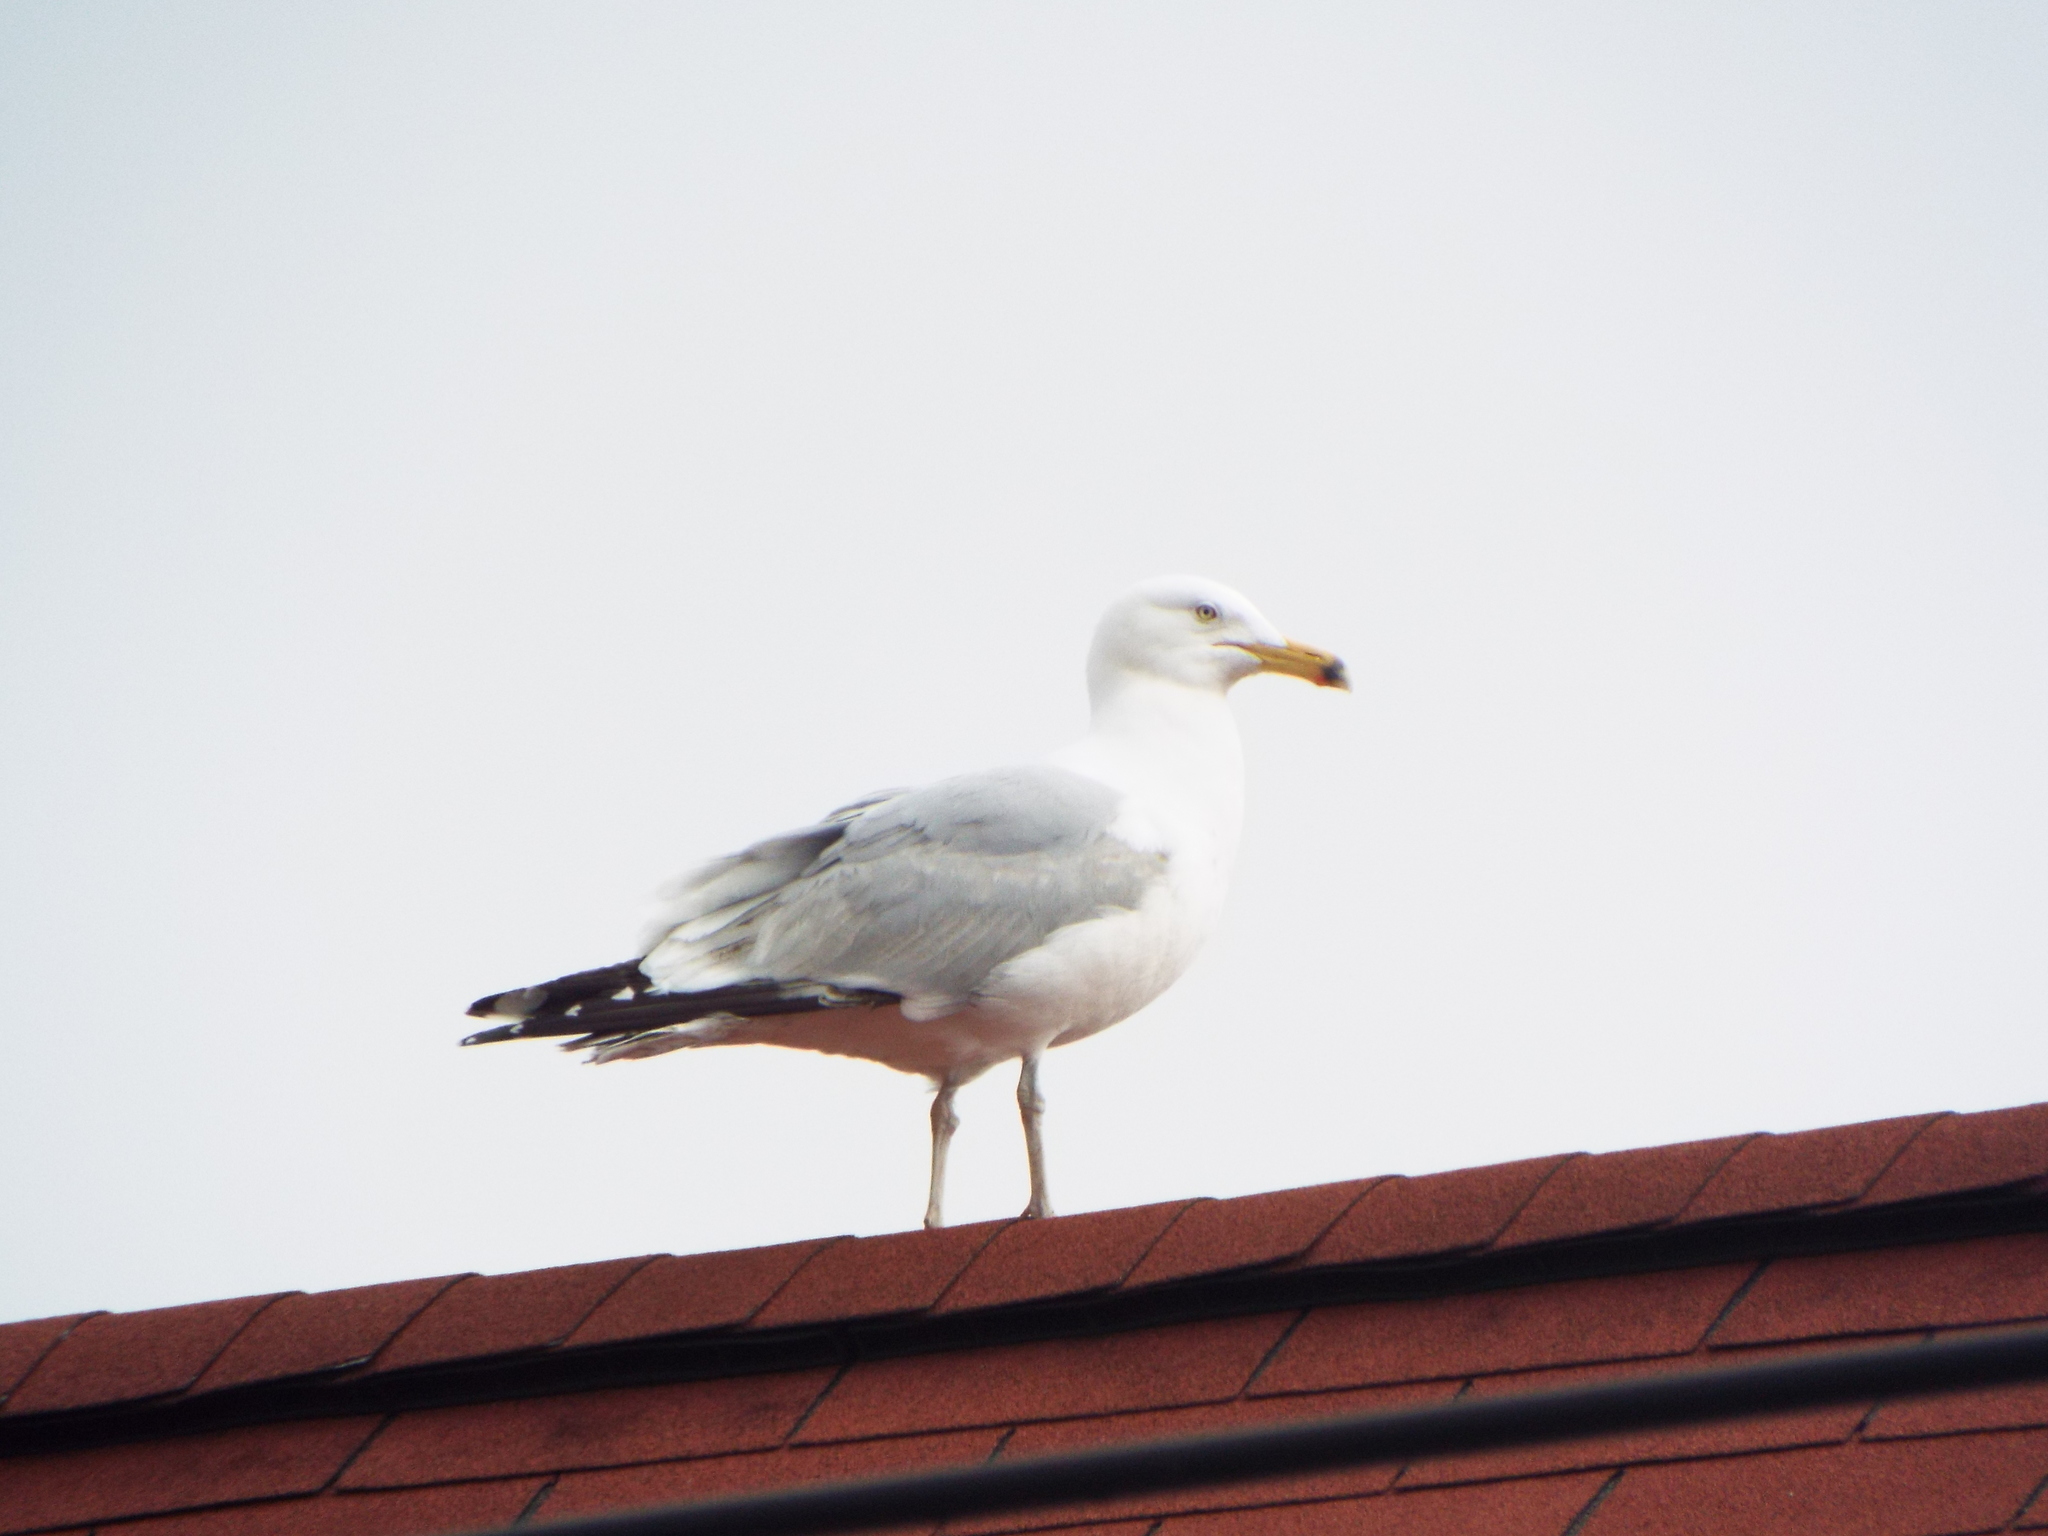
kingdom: Animalia
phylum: Chordata
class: Aves
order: Charadriiformes
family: Laridae
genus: Larus
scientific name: Larus argentatus
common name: Herring gull
